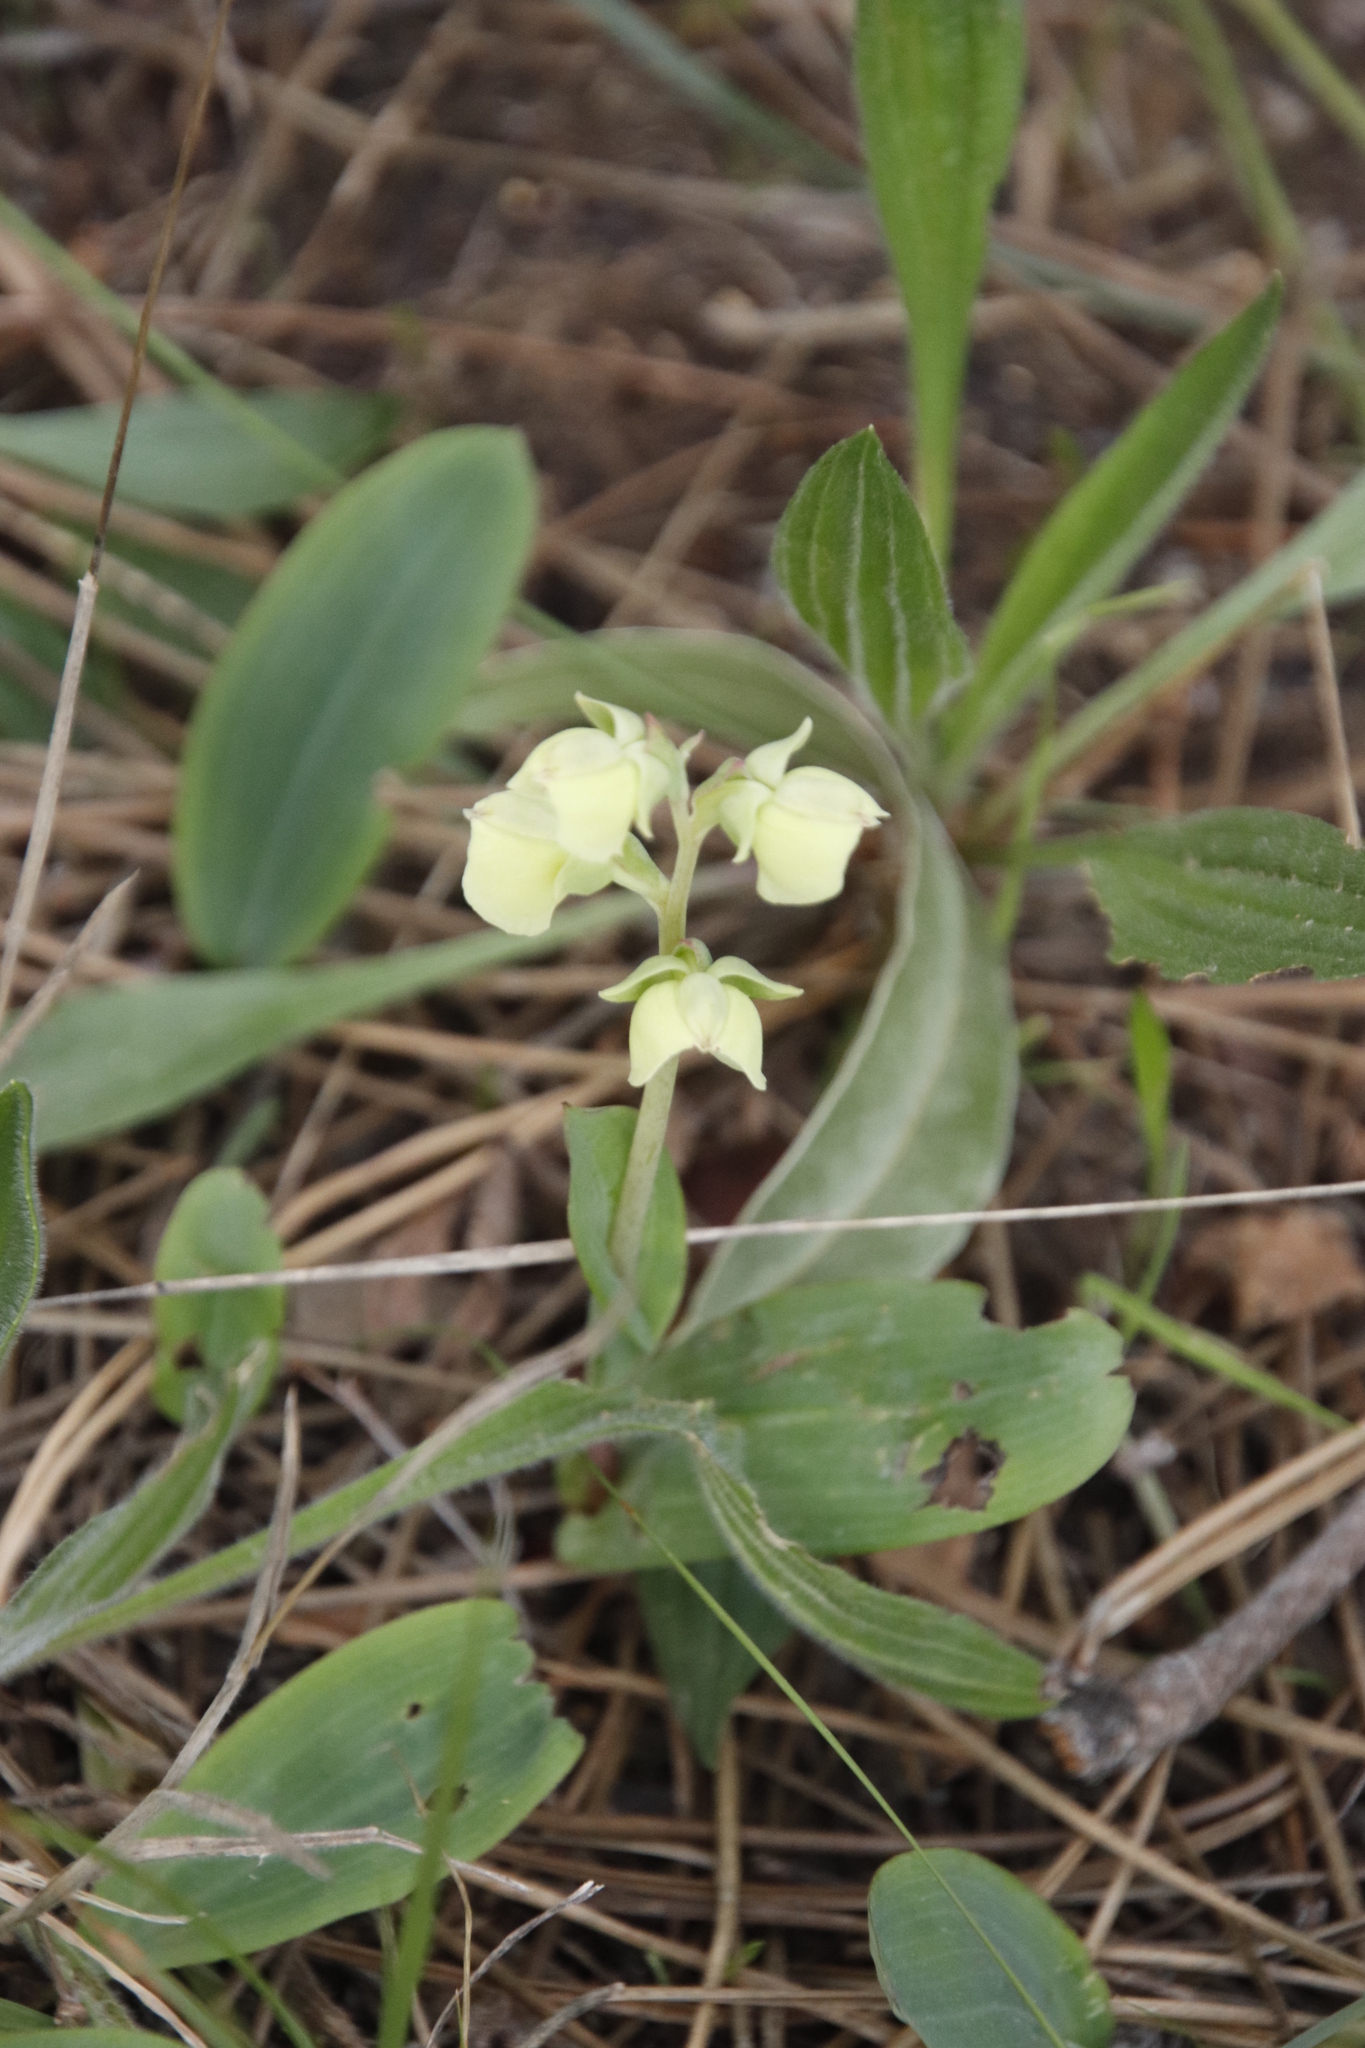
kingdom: Plantae
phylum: Tracheophyta
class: Liliopsida
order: Asparagales
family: Orchidaceae
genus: Pterygodium
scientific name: Pterygodium catholicum
